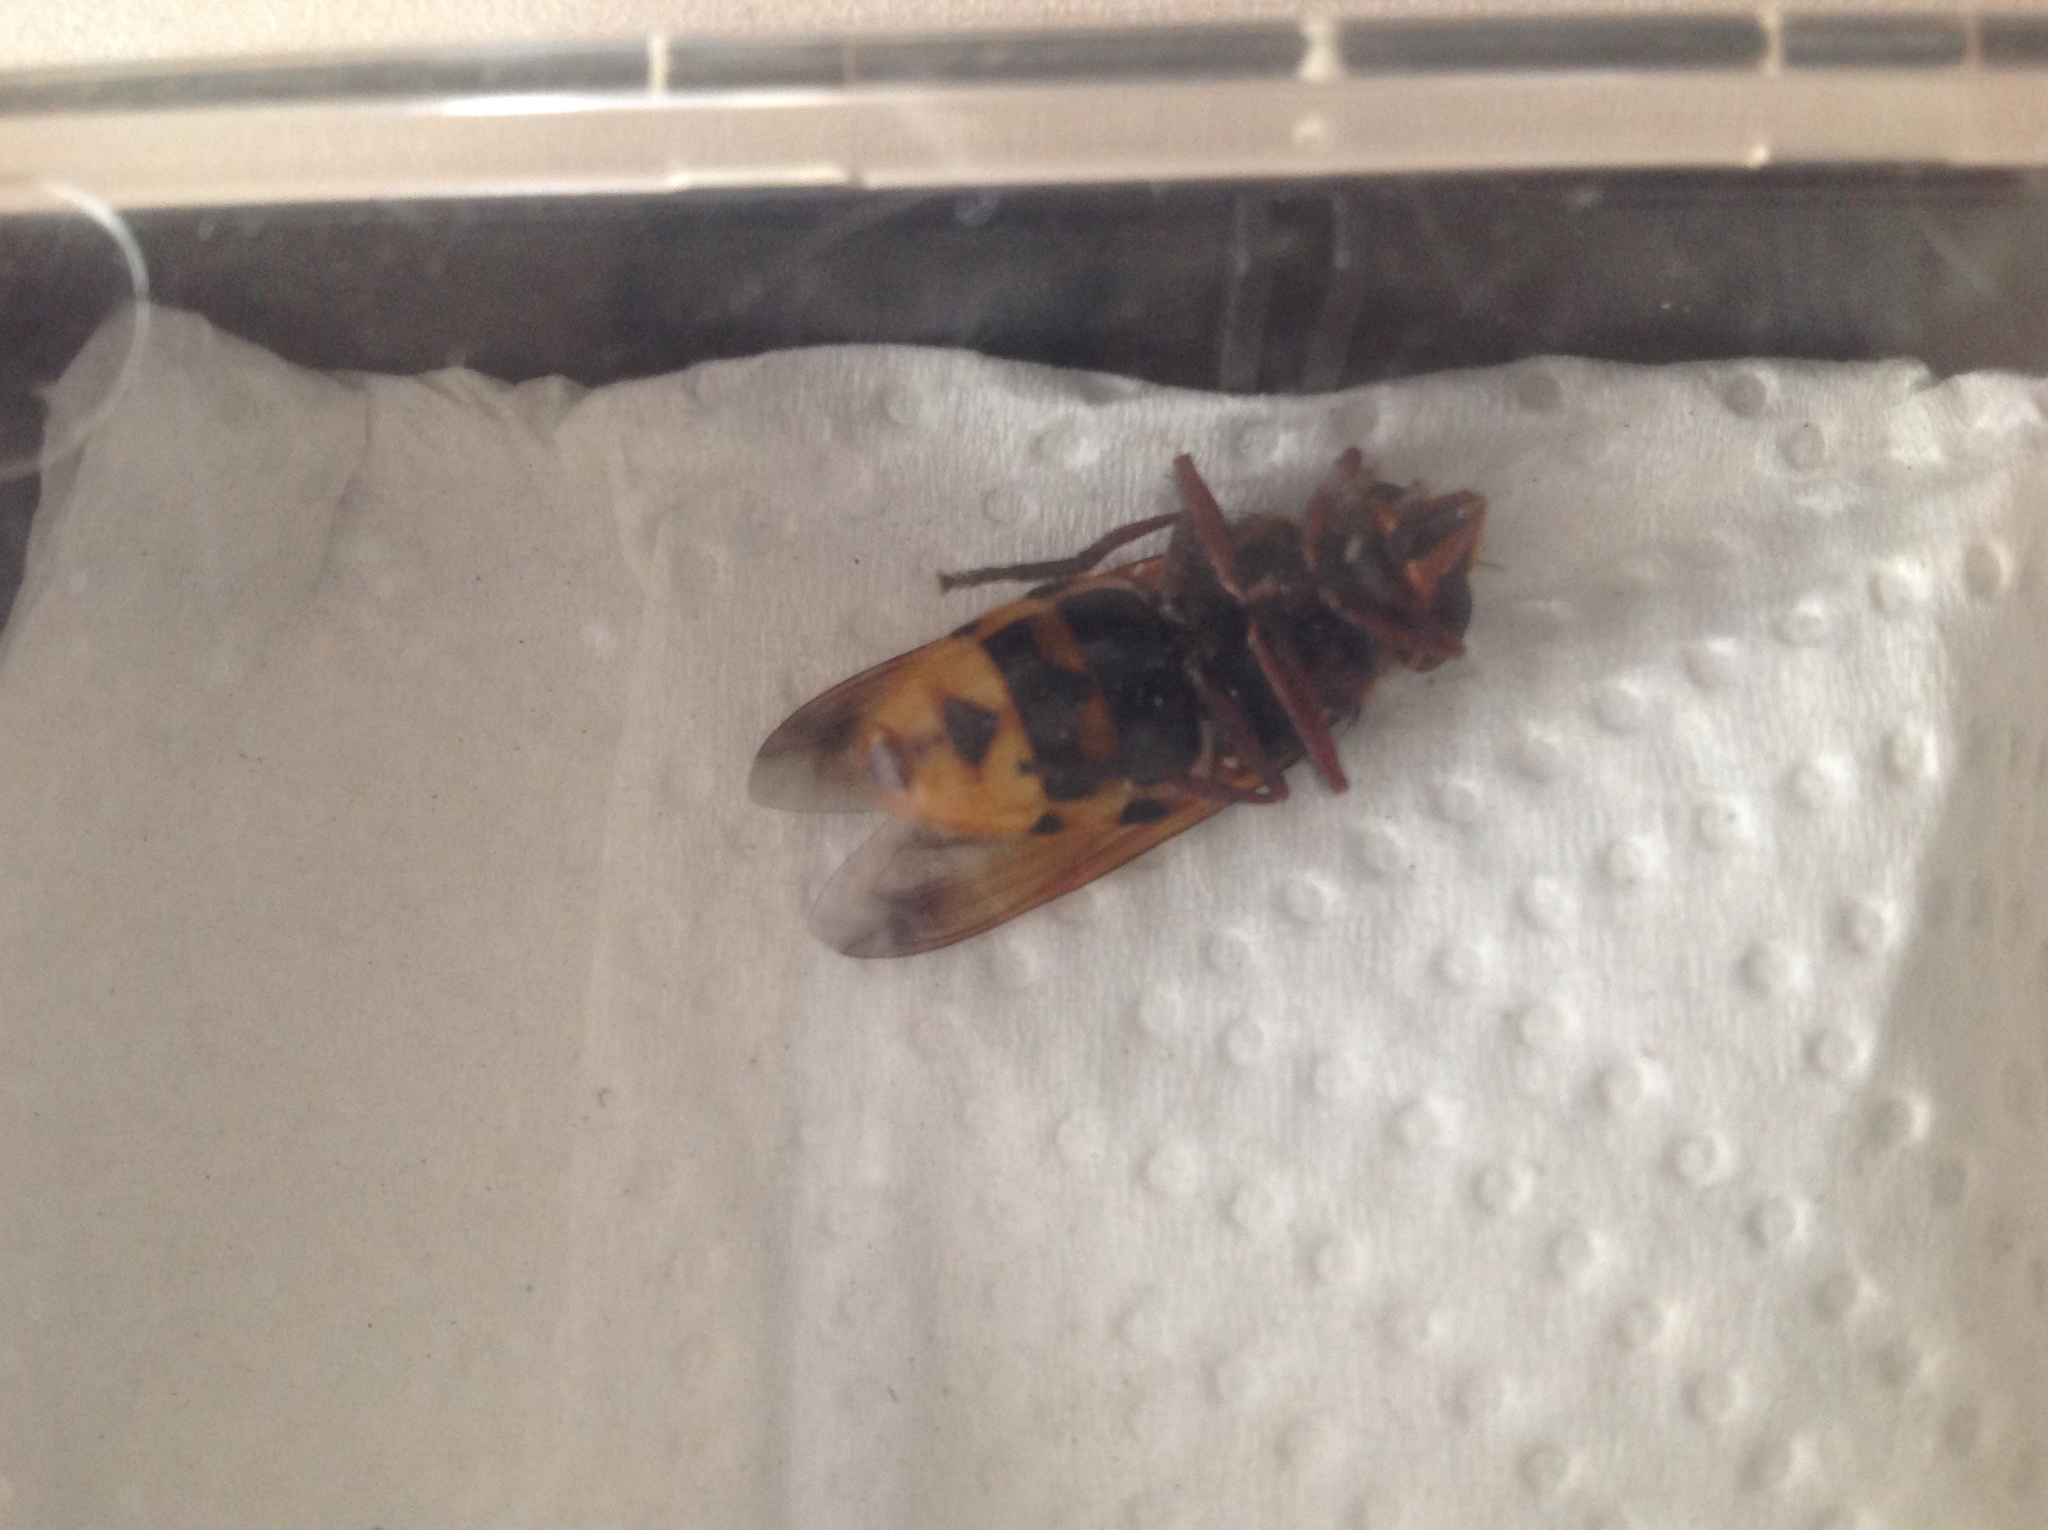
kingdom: Animalia
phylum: Arthropoda
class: Insecta
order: Diptera
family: Syrphidae
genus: Volucella
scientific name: Volucella zonaria
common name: Hornet hoverfly
